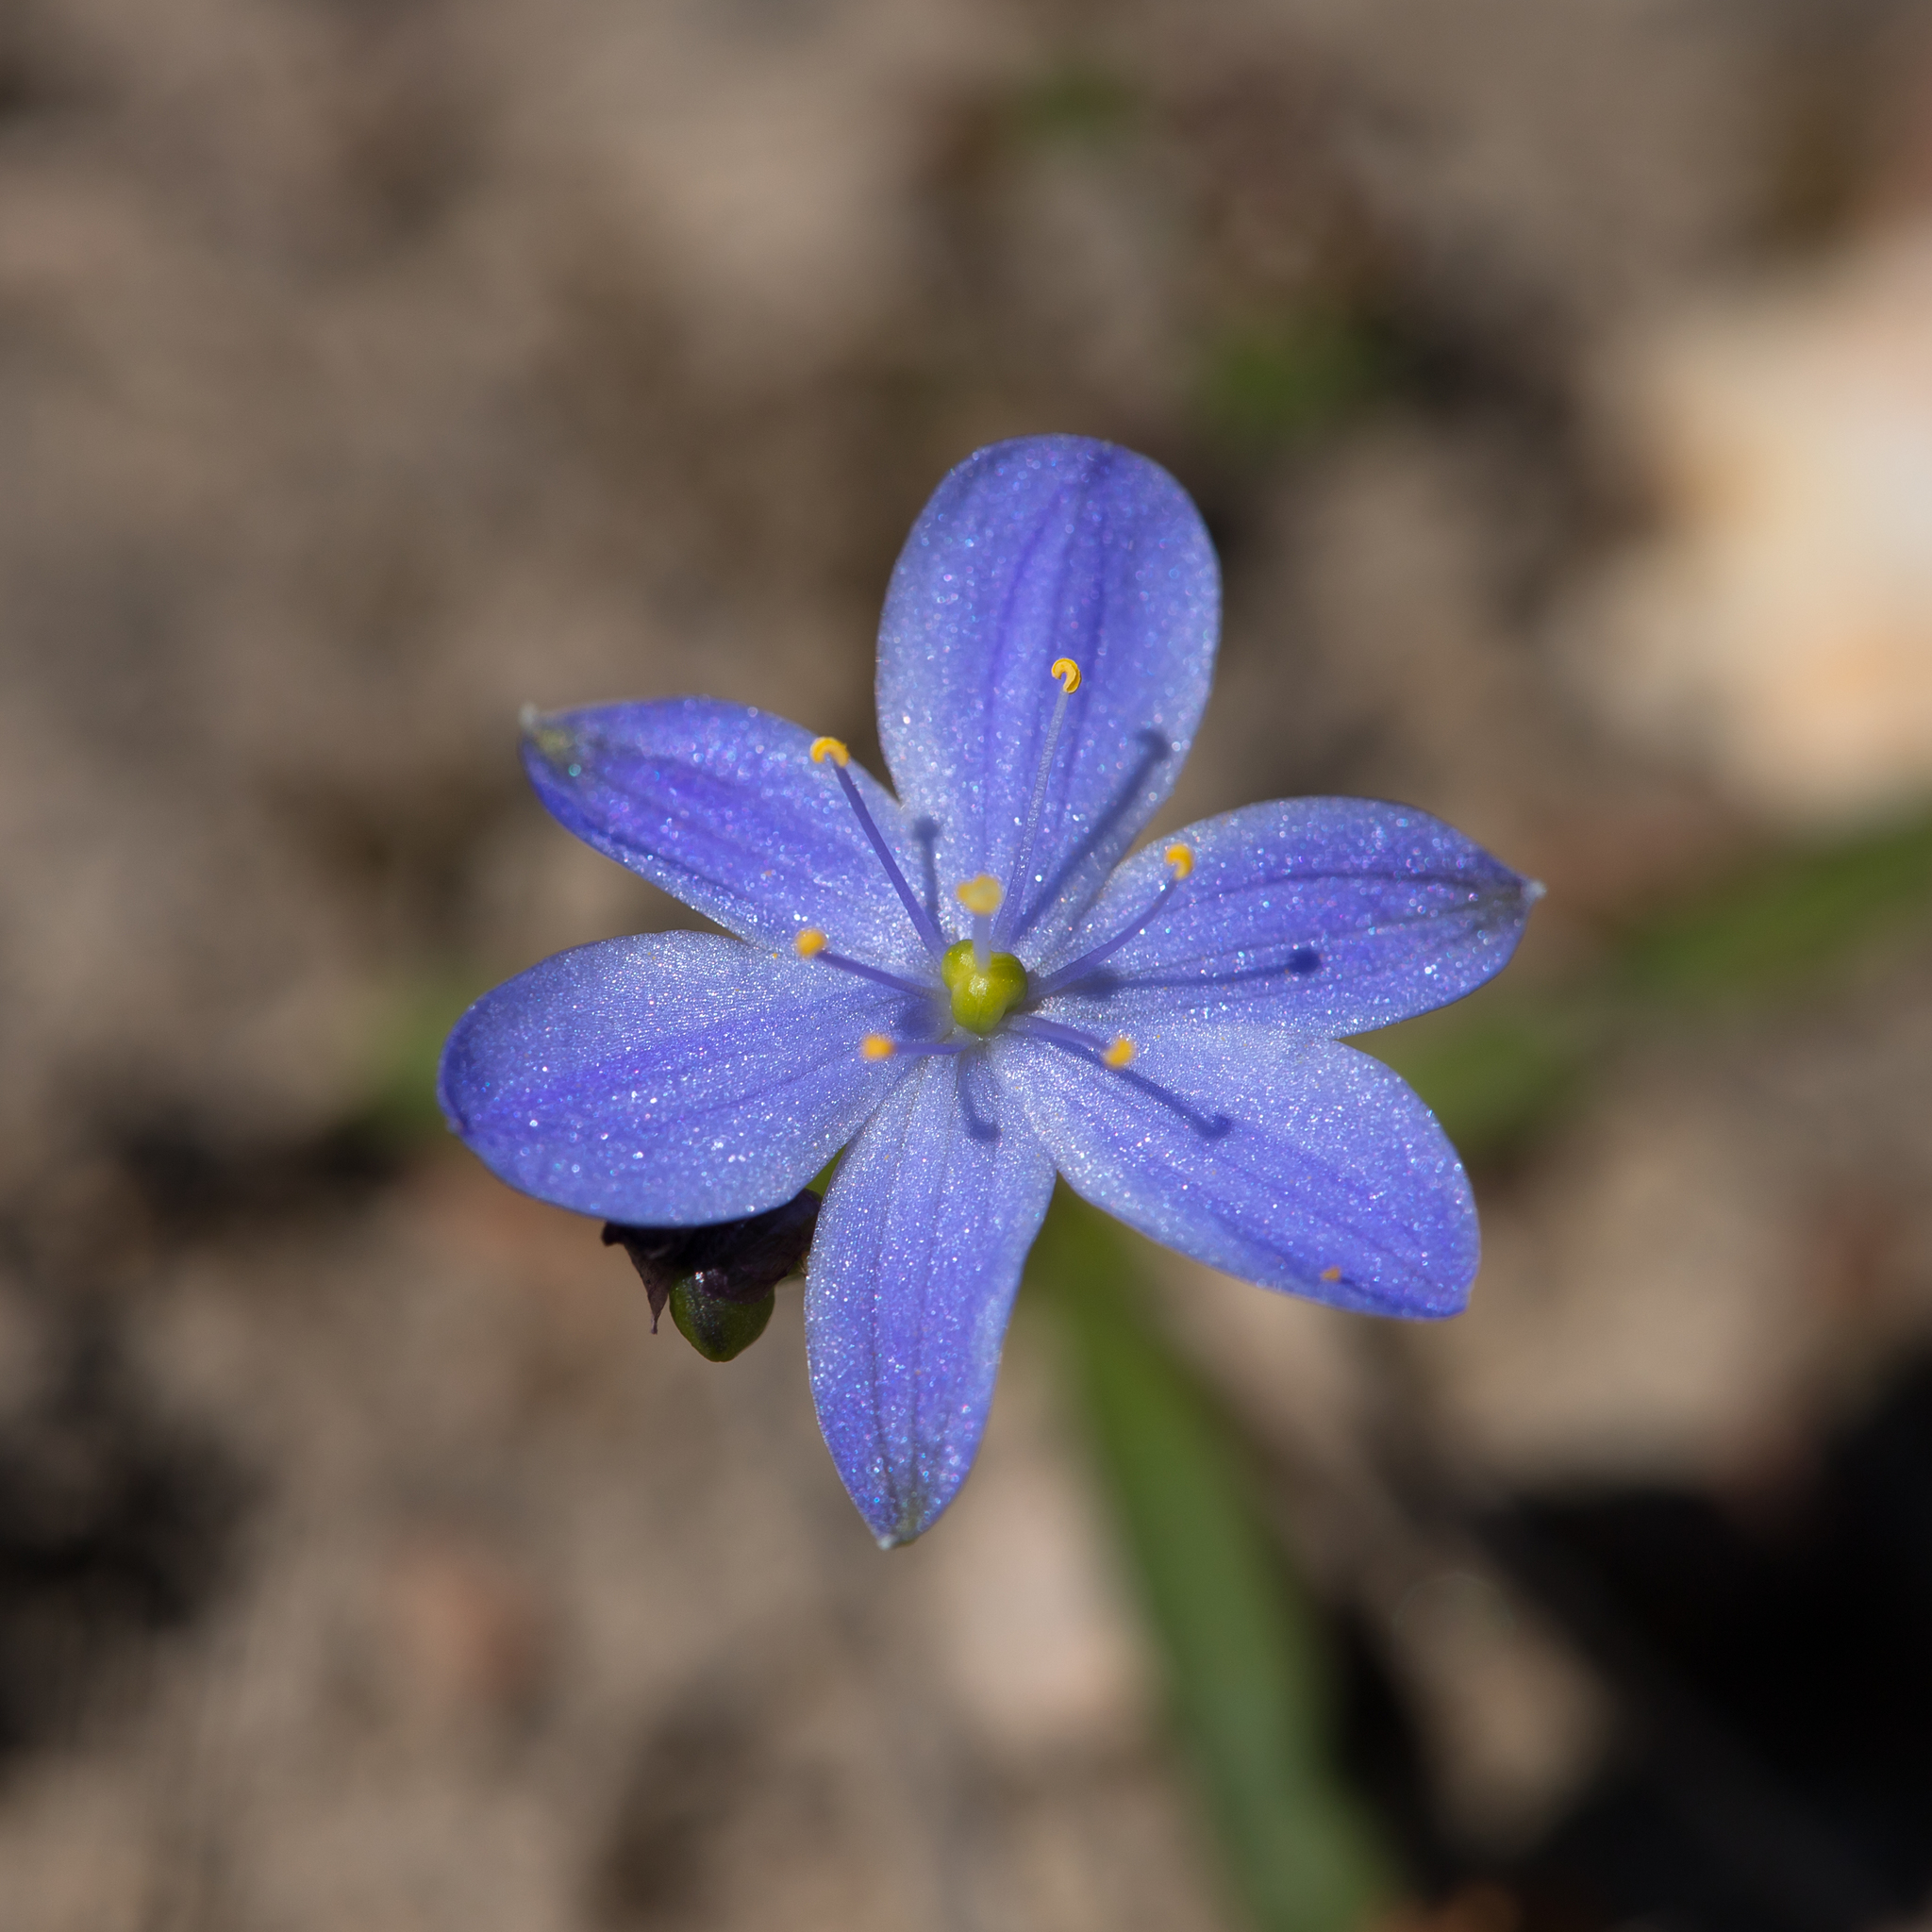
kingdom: Plantae
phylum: Tracheophyta
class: Liliopsida
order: Asparagales
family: Asphodelaceae
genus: Chamaescilla
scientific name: Chamaescilla corymbosa
